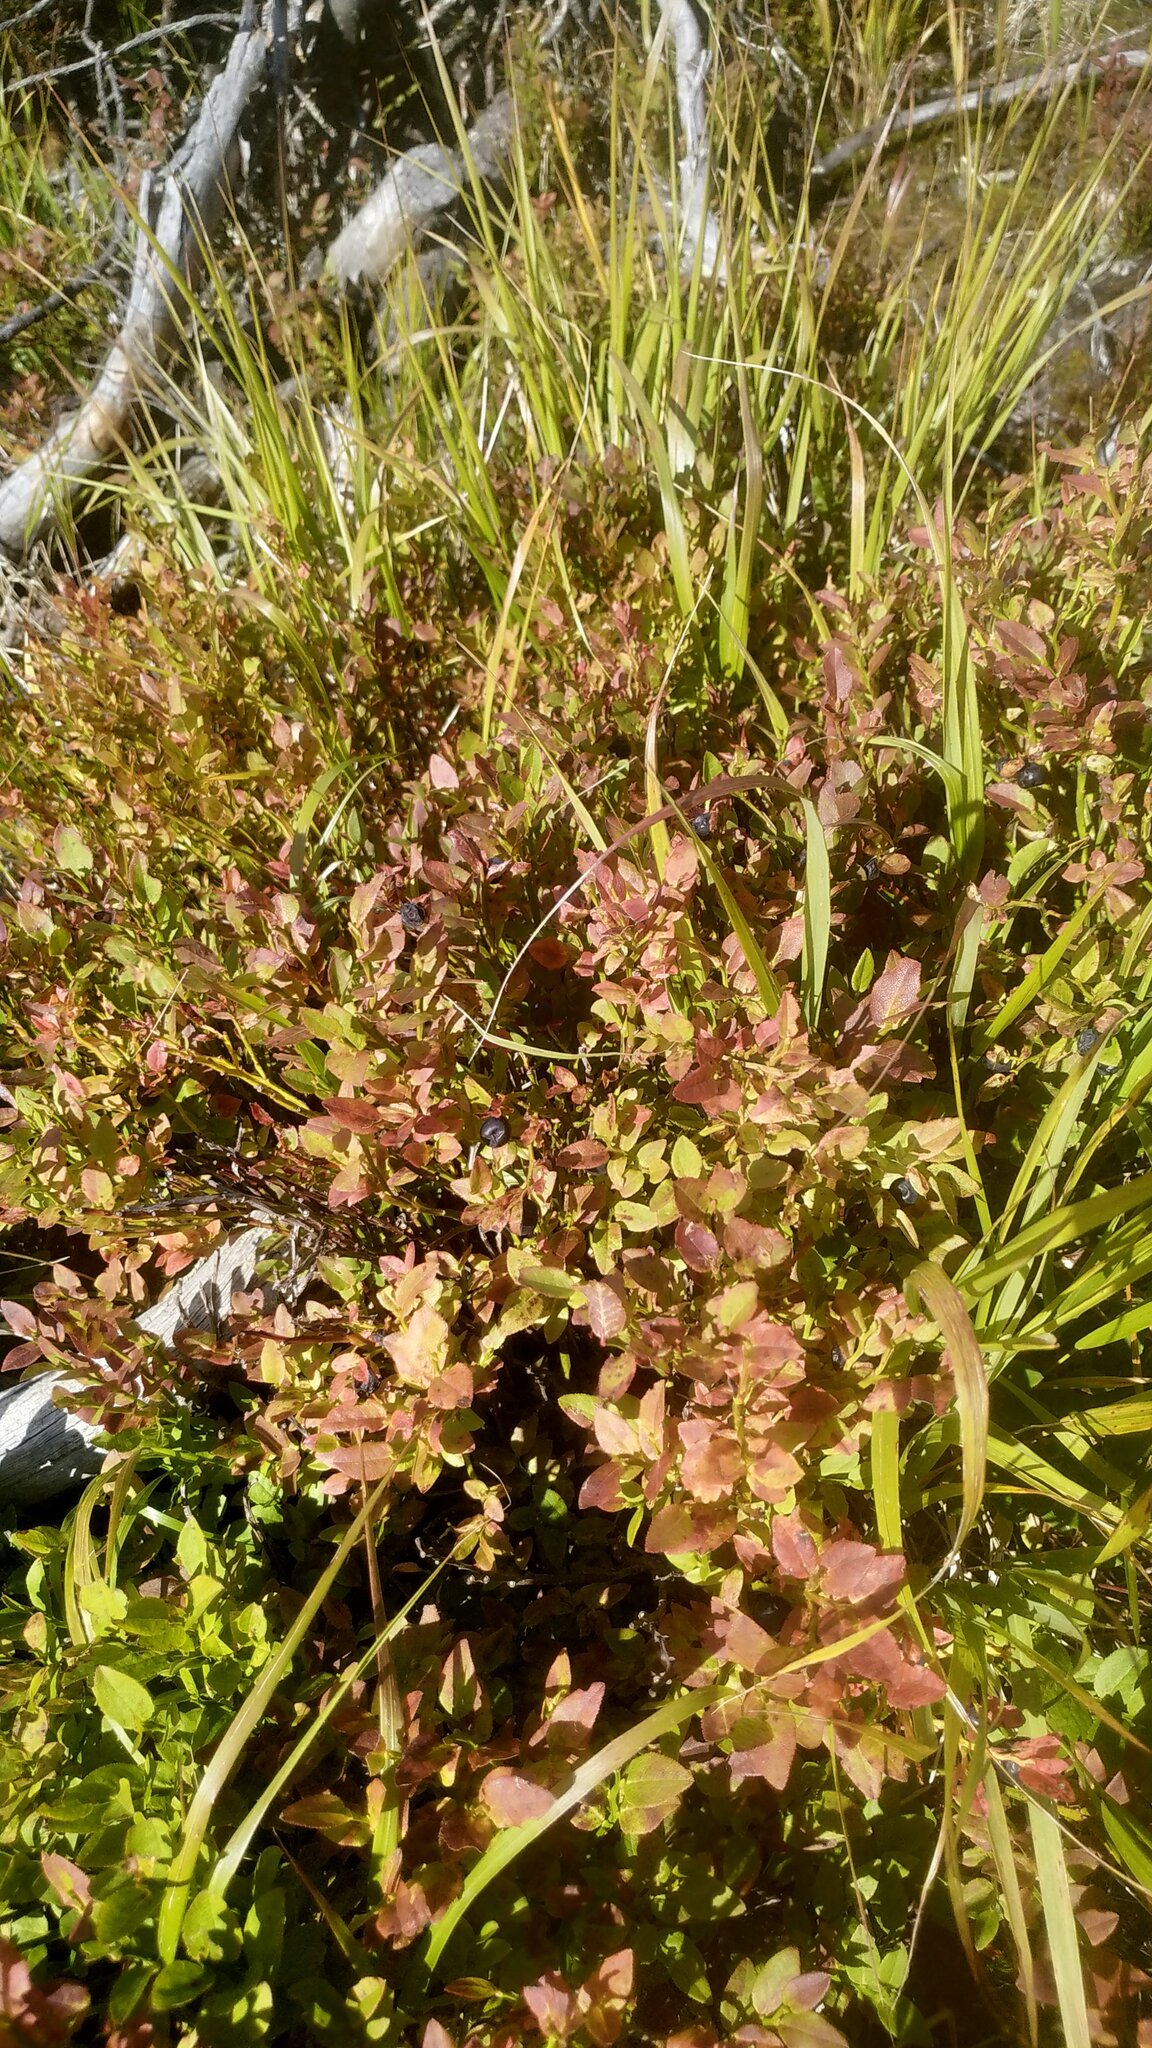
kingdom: Plantae
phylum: Tracheophyta
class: Magnoliopsida
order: Ericales
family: Ericaceae
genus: Vaccinium
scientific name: Vaccinium myrtillus
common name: Bilberry
